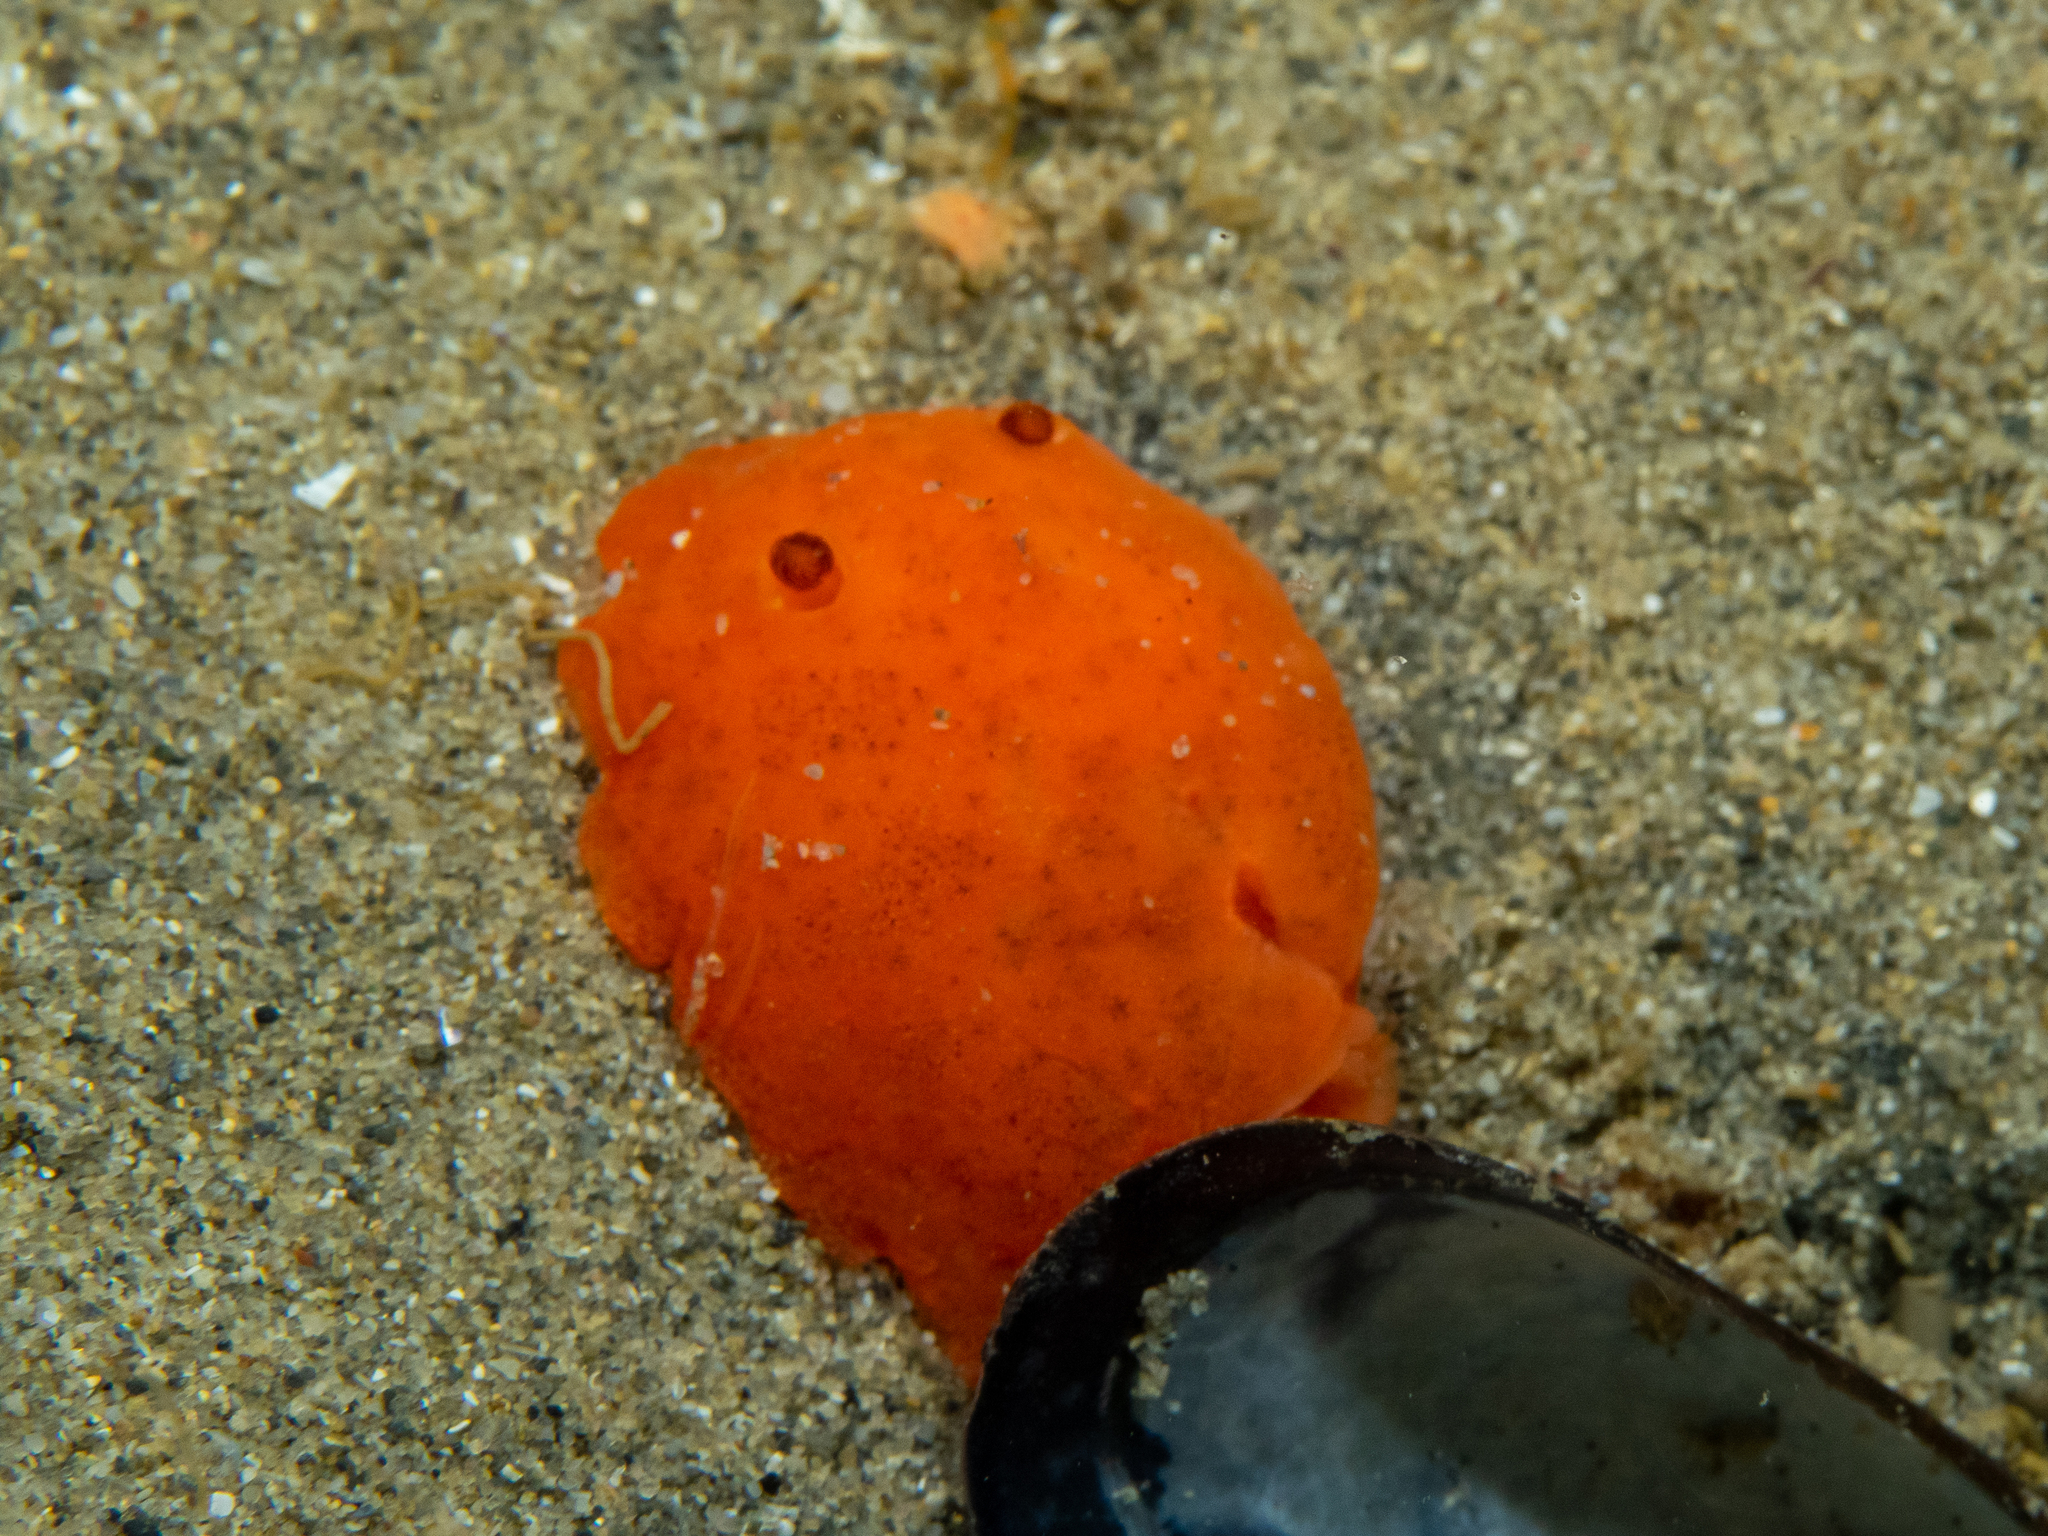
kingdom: Animalia
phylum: Mollusca
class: Gastropoda
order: Nudibranchia
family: Discodorididae
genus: Discodoris
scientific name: Discodoris paroa
